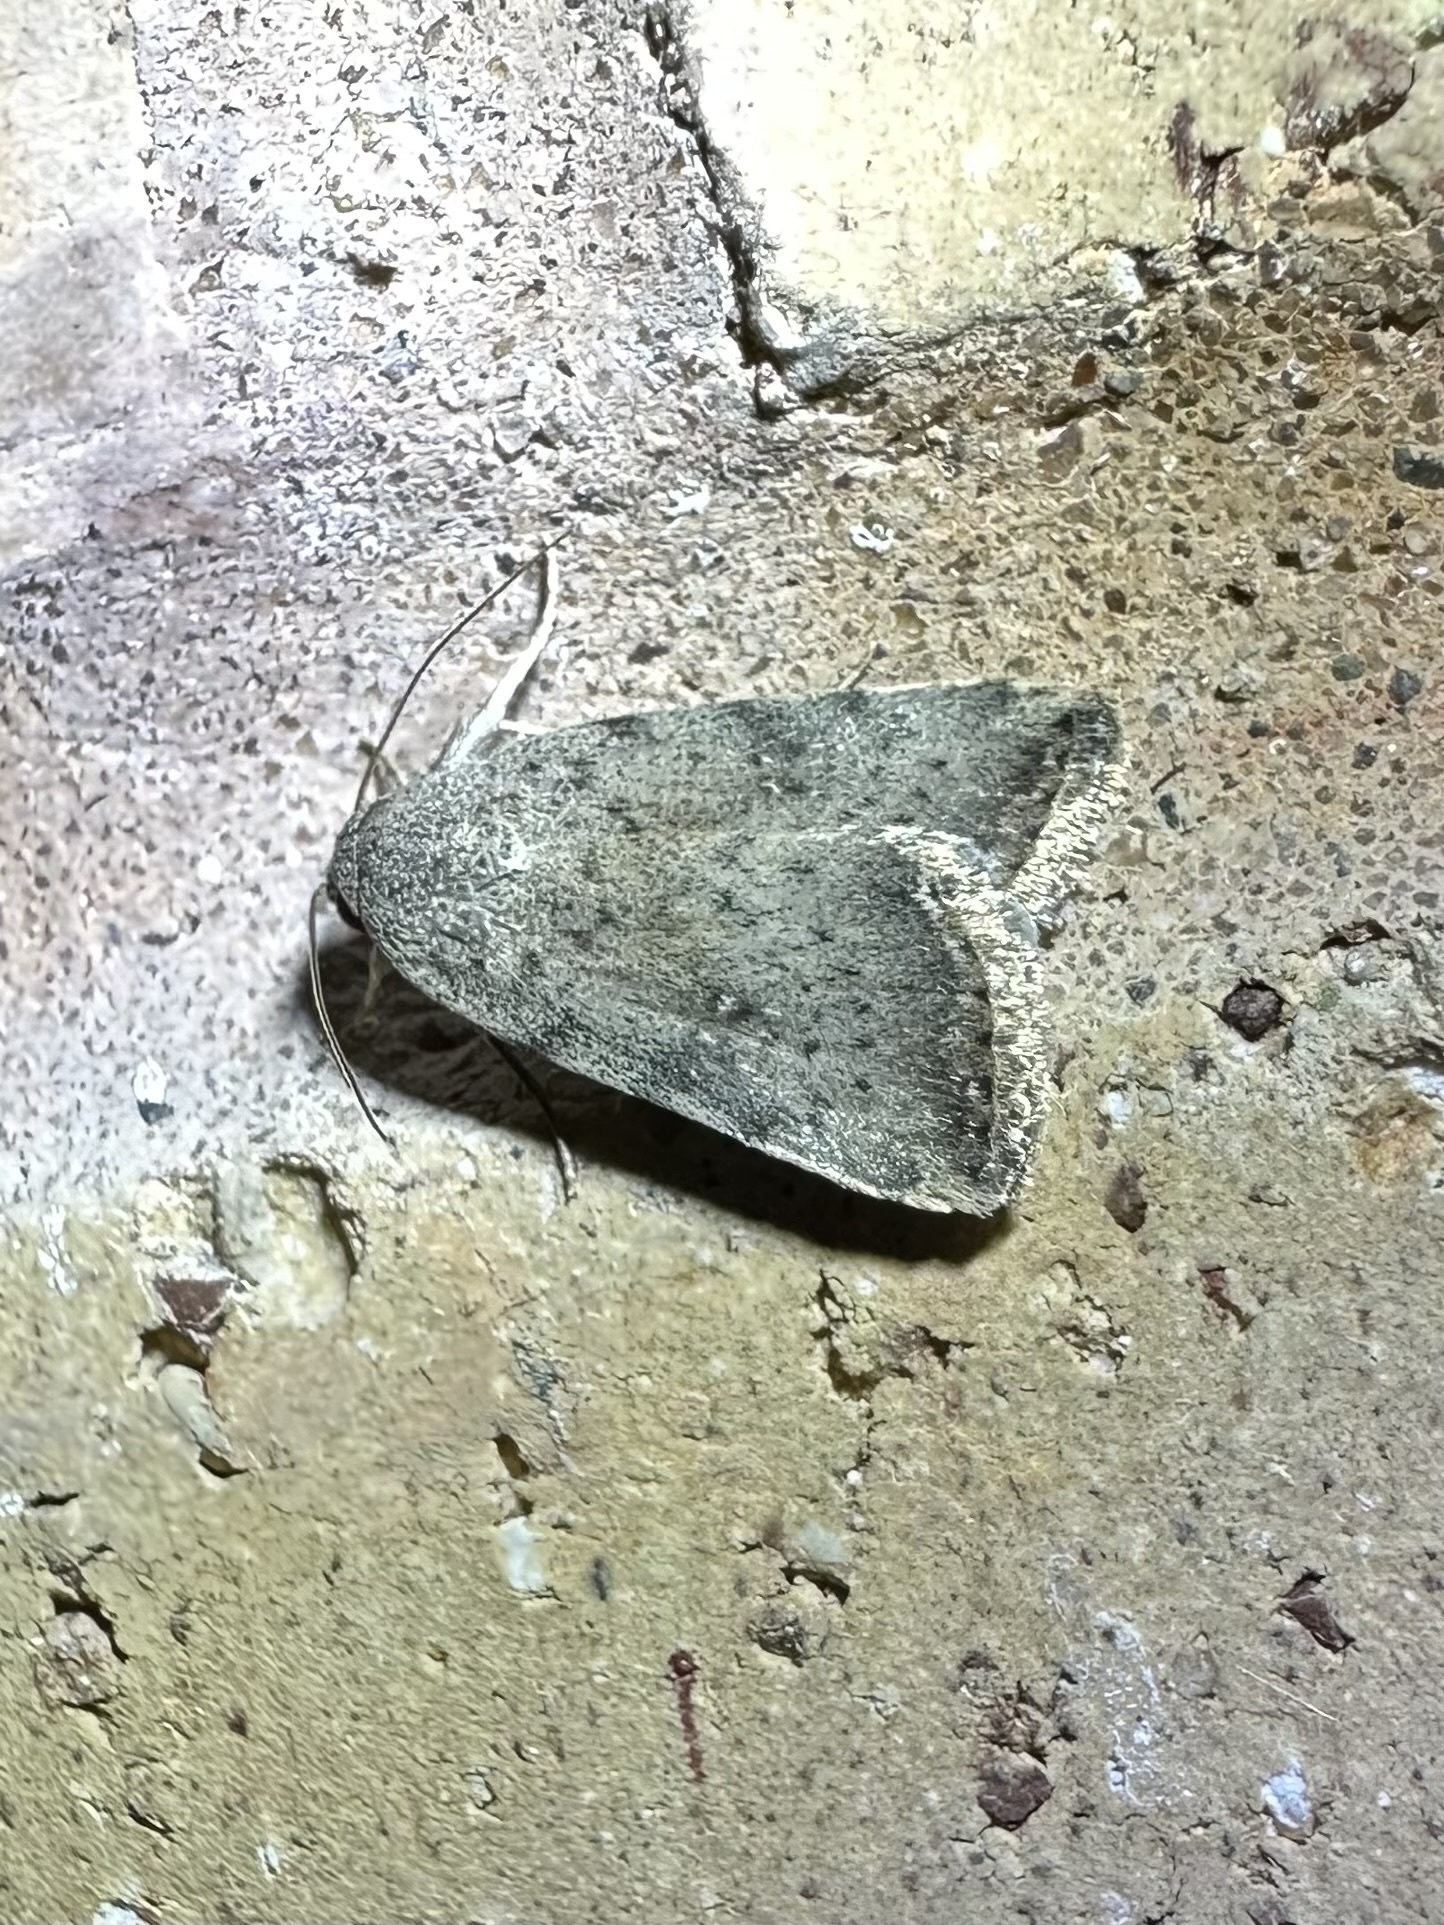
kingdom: Animalia
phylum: Arthropoda
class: Insecta
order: Lepidoptera
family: Noctuidae
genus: Micrathetis
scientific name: Micrathetis triplex
